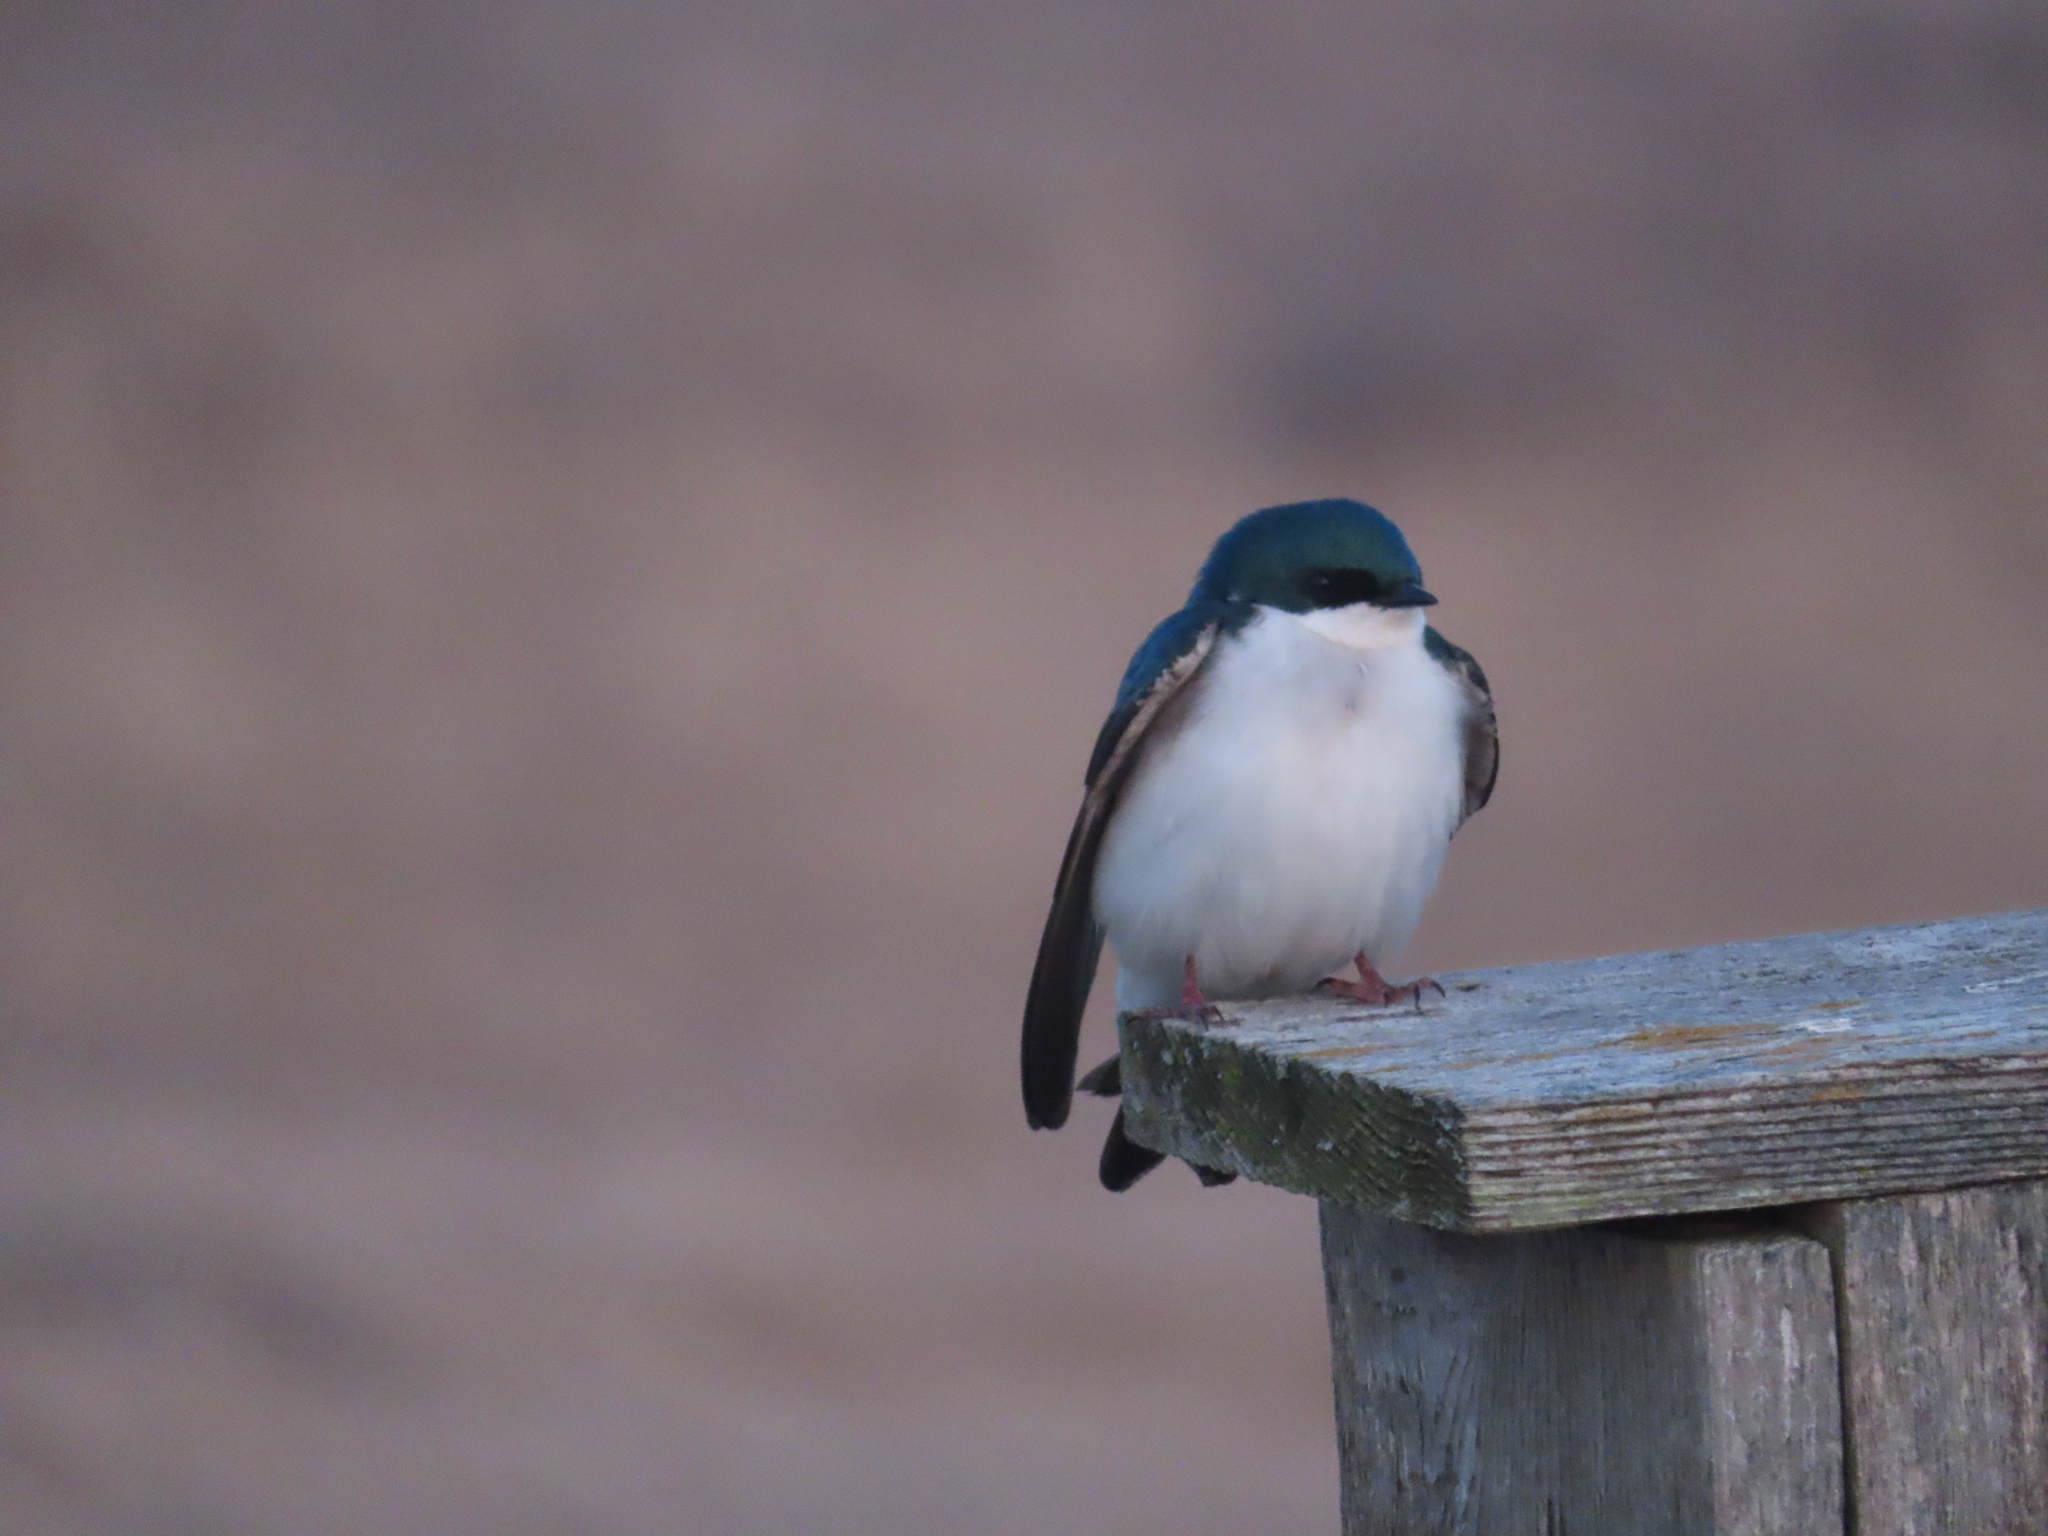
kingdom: Animalia
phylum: Chordata
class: Aves
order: Passeriformes
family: Hirundinidae
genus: Tachycineta
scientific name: Tachycineta bicolor
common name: Tree swallow
